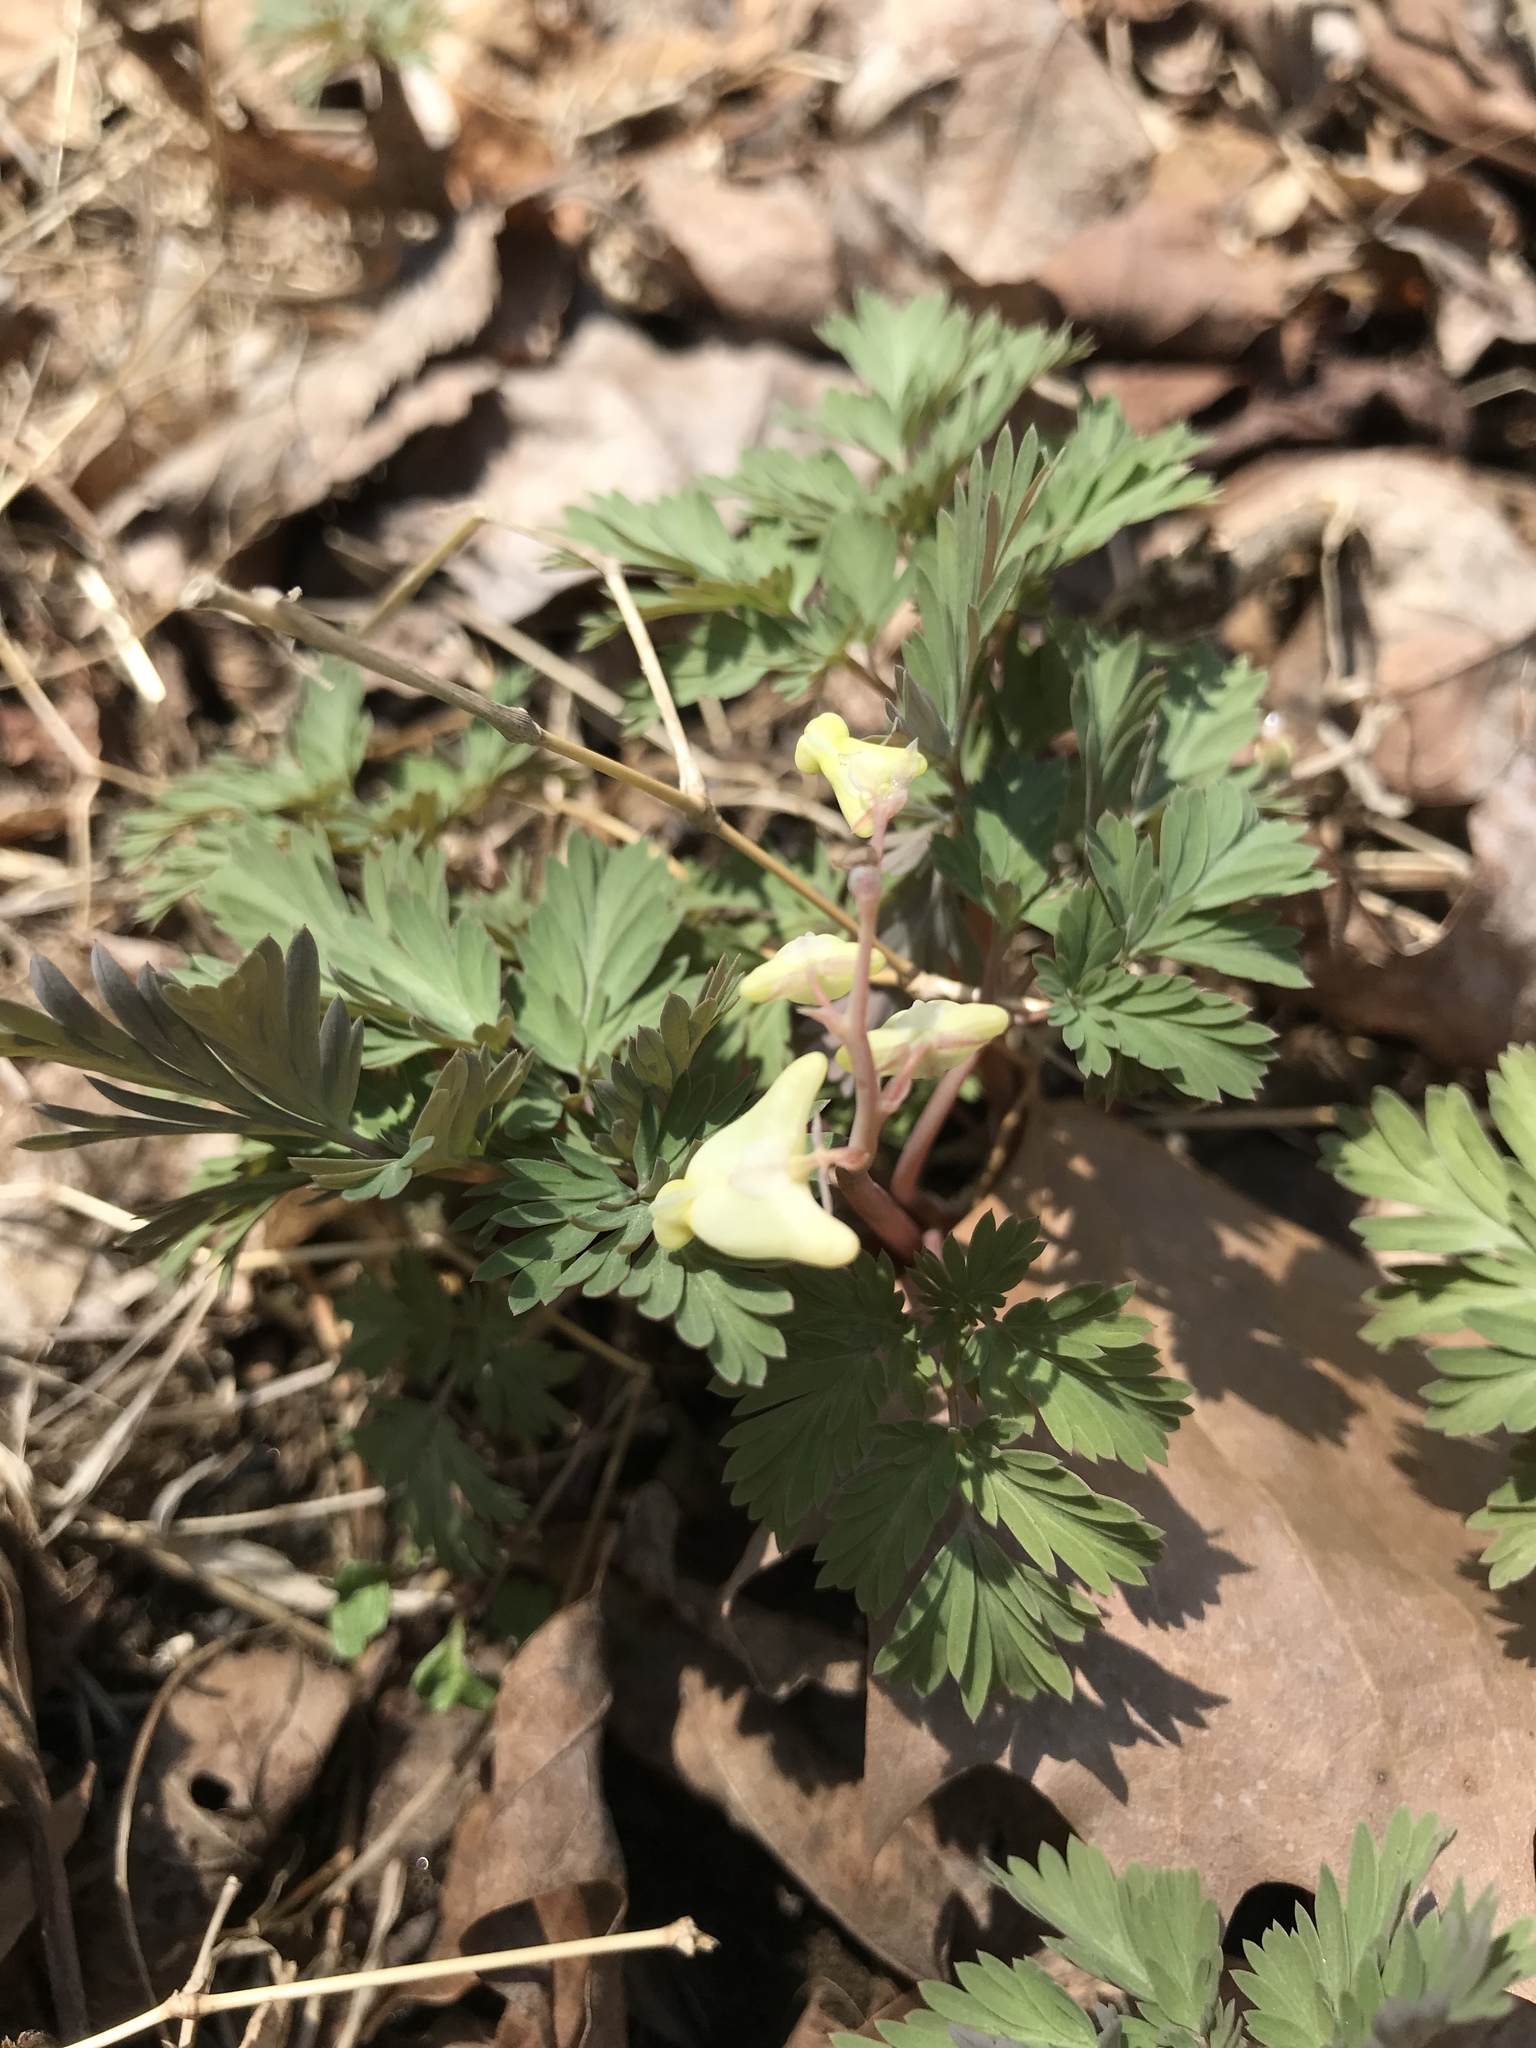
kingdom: Plantae
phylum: Tracheophyta
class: Magnoliopsida
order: Ranunculales
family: Papaveraceae
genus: Dicentra
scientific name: Dicentra cucullaria
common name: Dutchman's breeches
